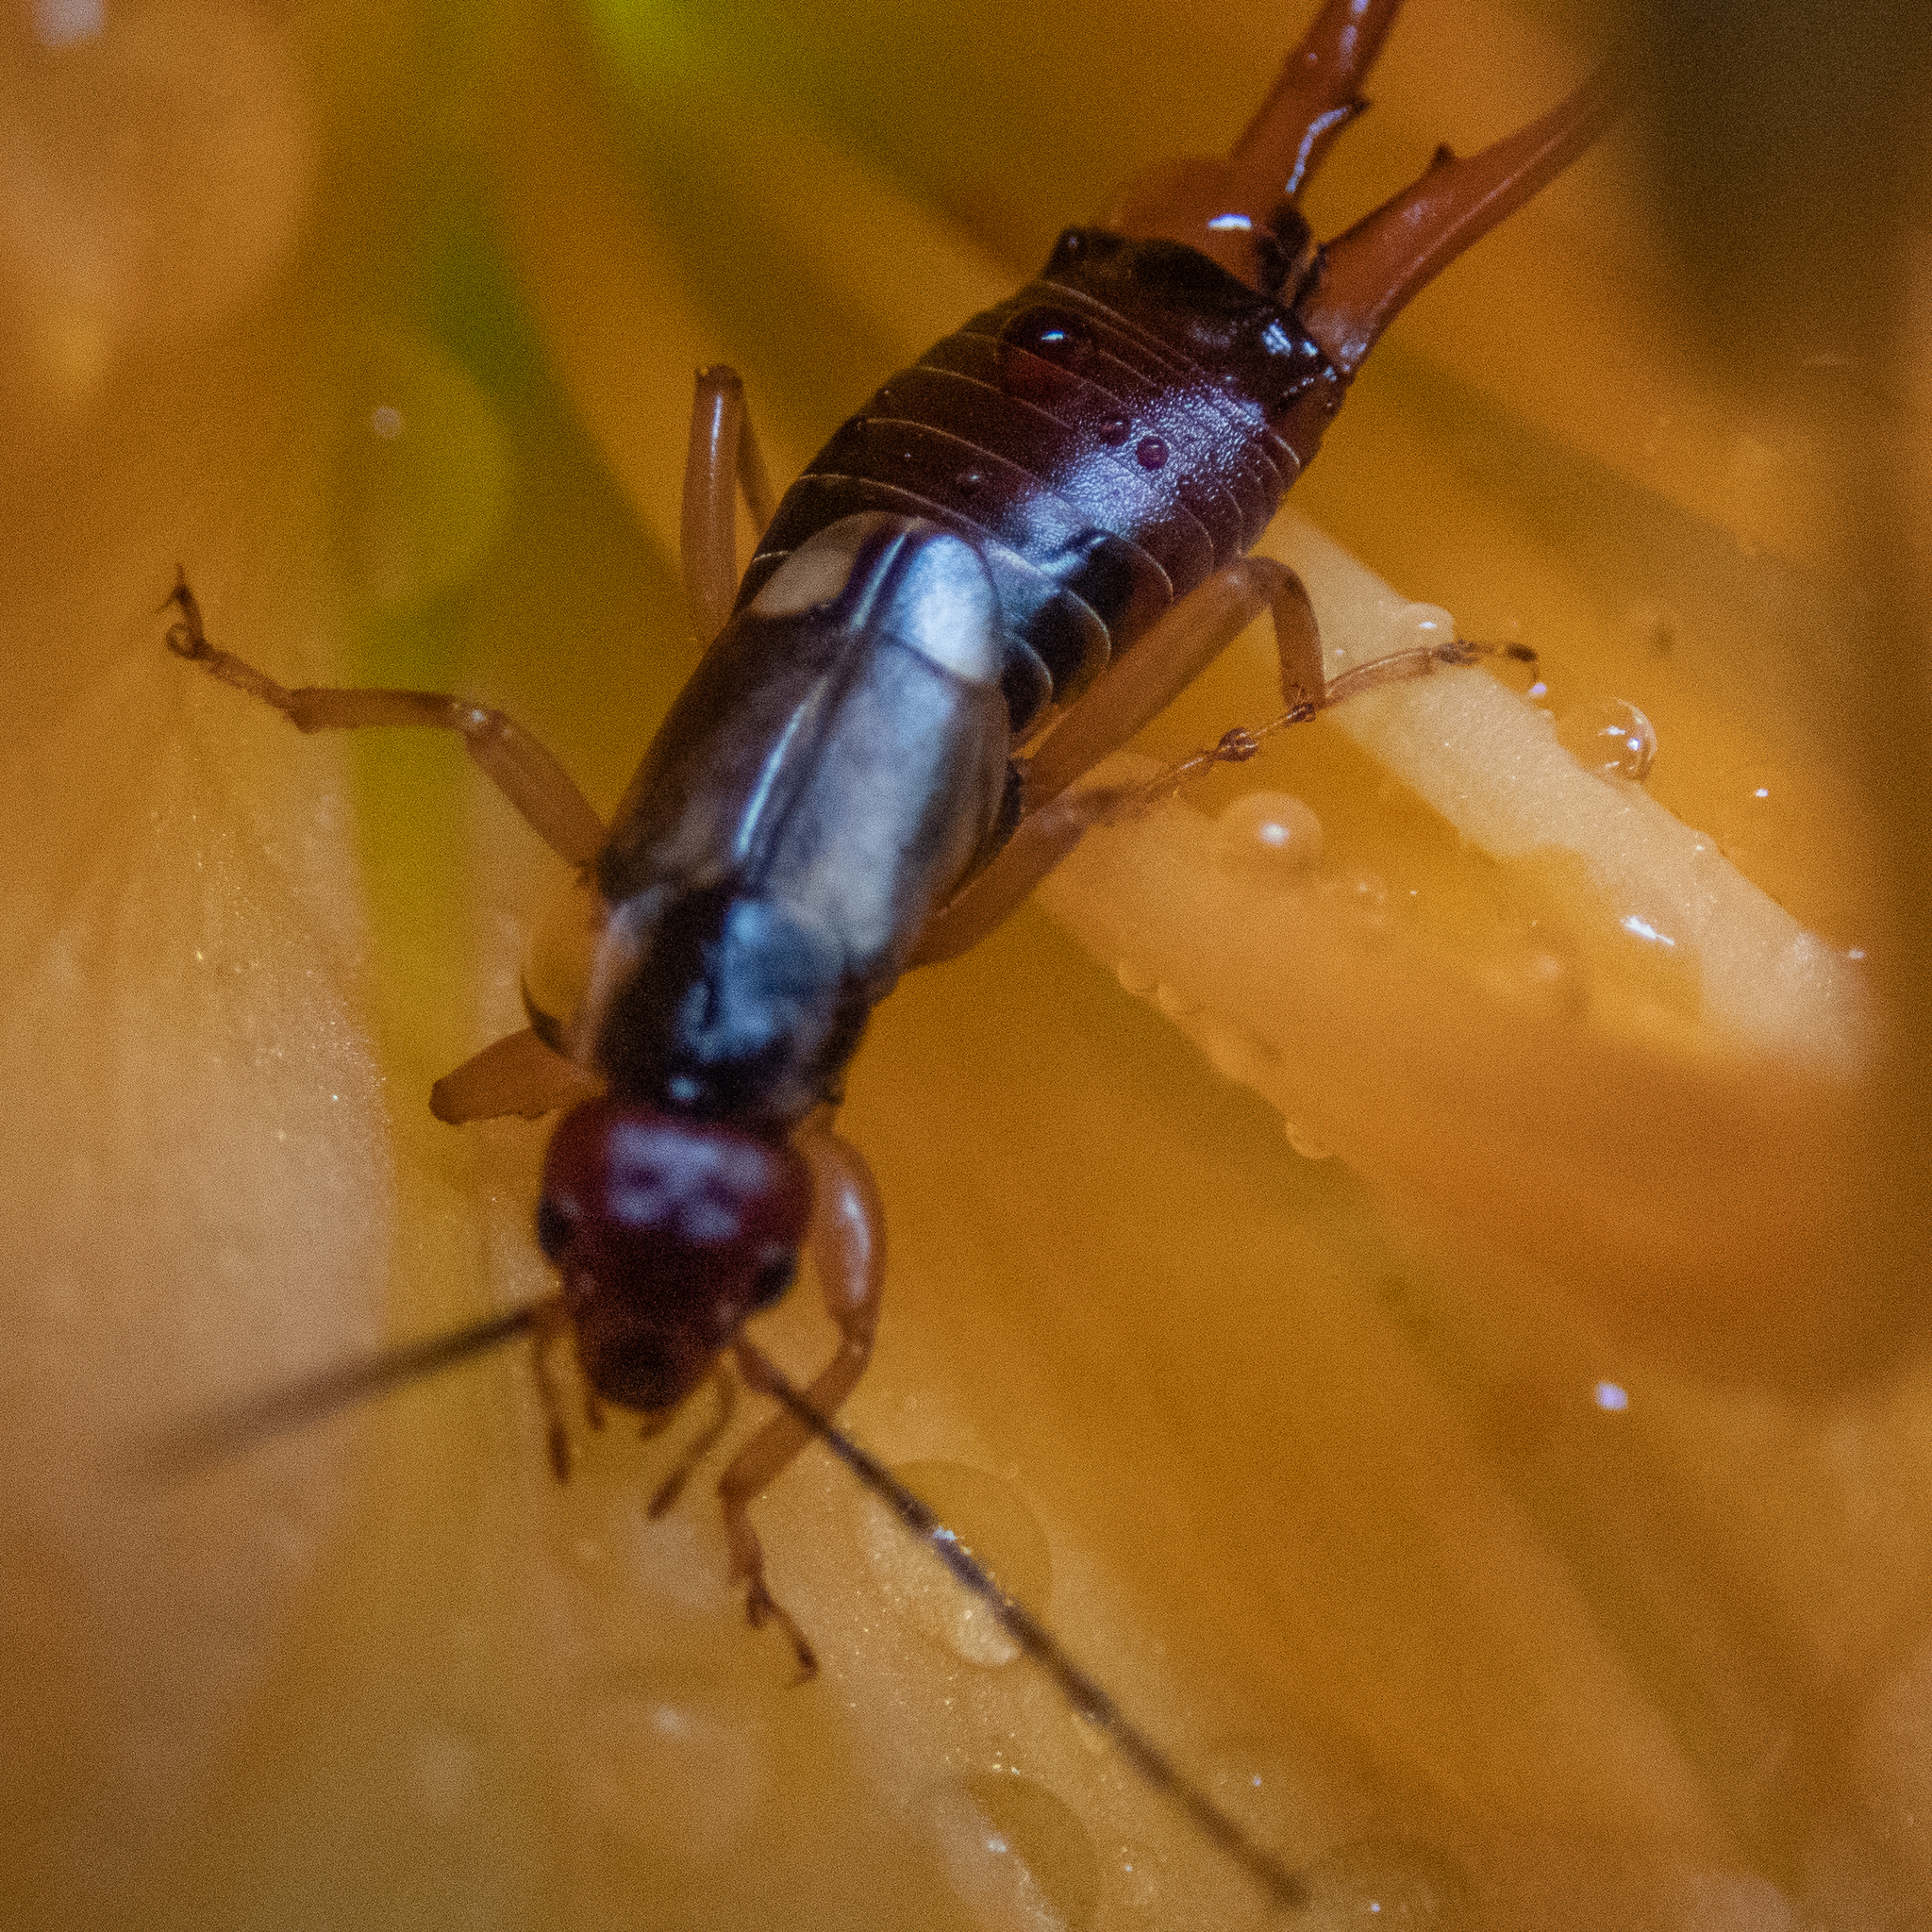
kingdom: Animalia
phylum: Arthropoda
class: Insecta
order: Dermaptera
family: Forficulidae
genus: Forficula
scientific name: Forficula
